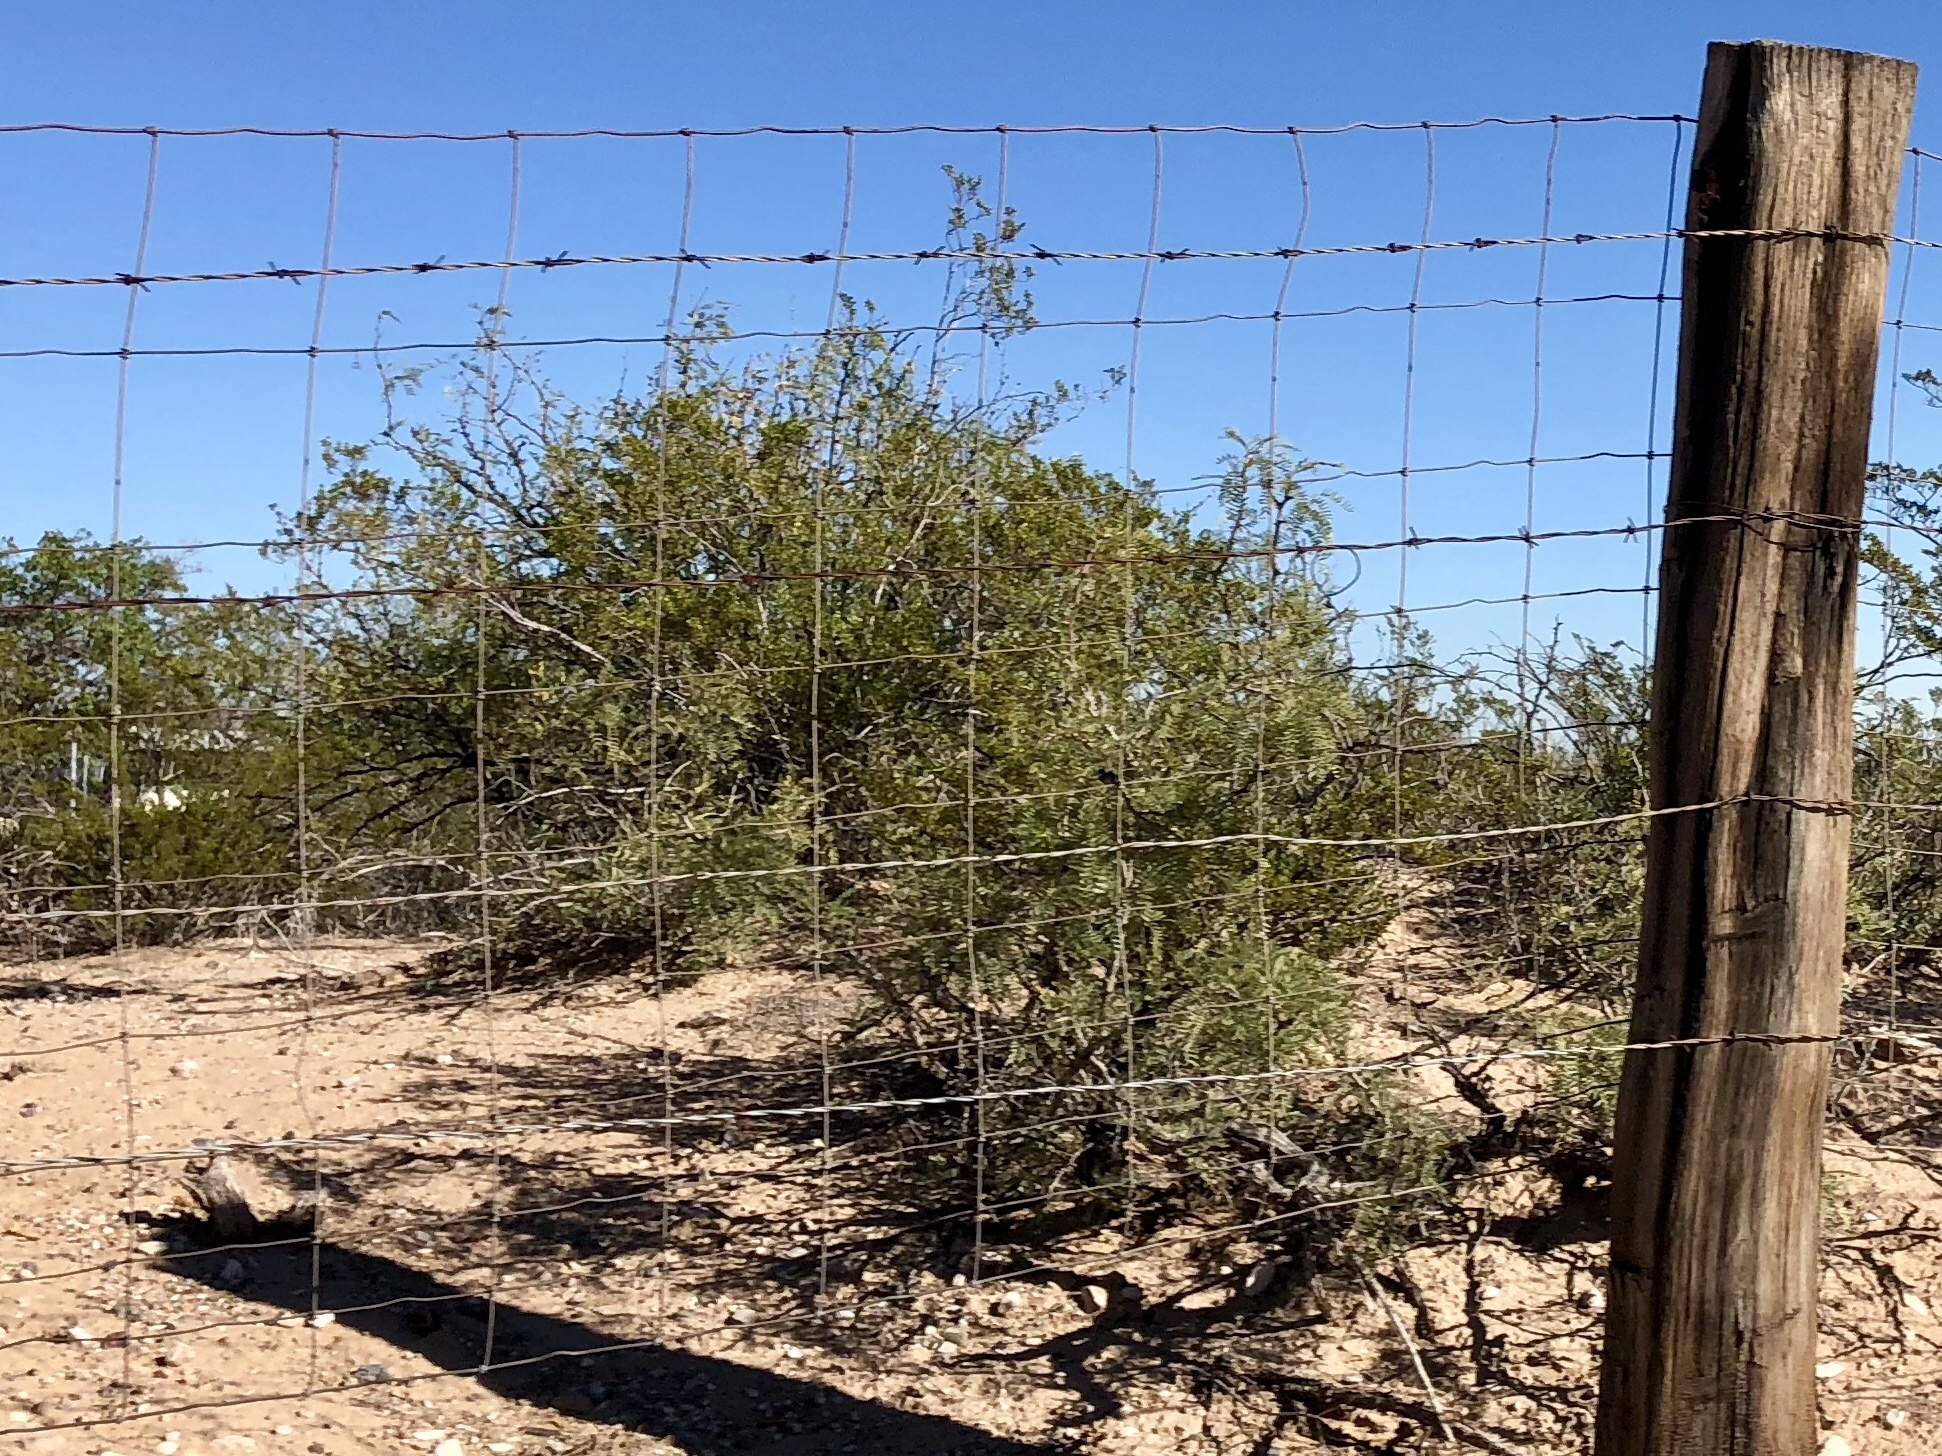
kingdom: Plantae
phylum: Tracheophyta
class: Magnoliopsida
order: Zygophyllales
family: Zygophyllaceae
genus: Larrea
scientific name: Larrea tridentata
